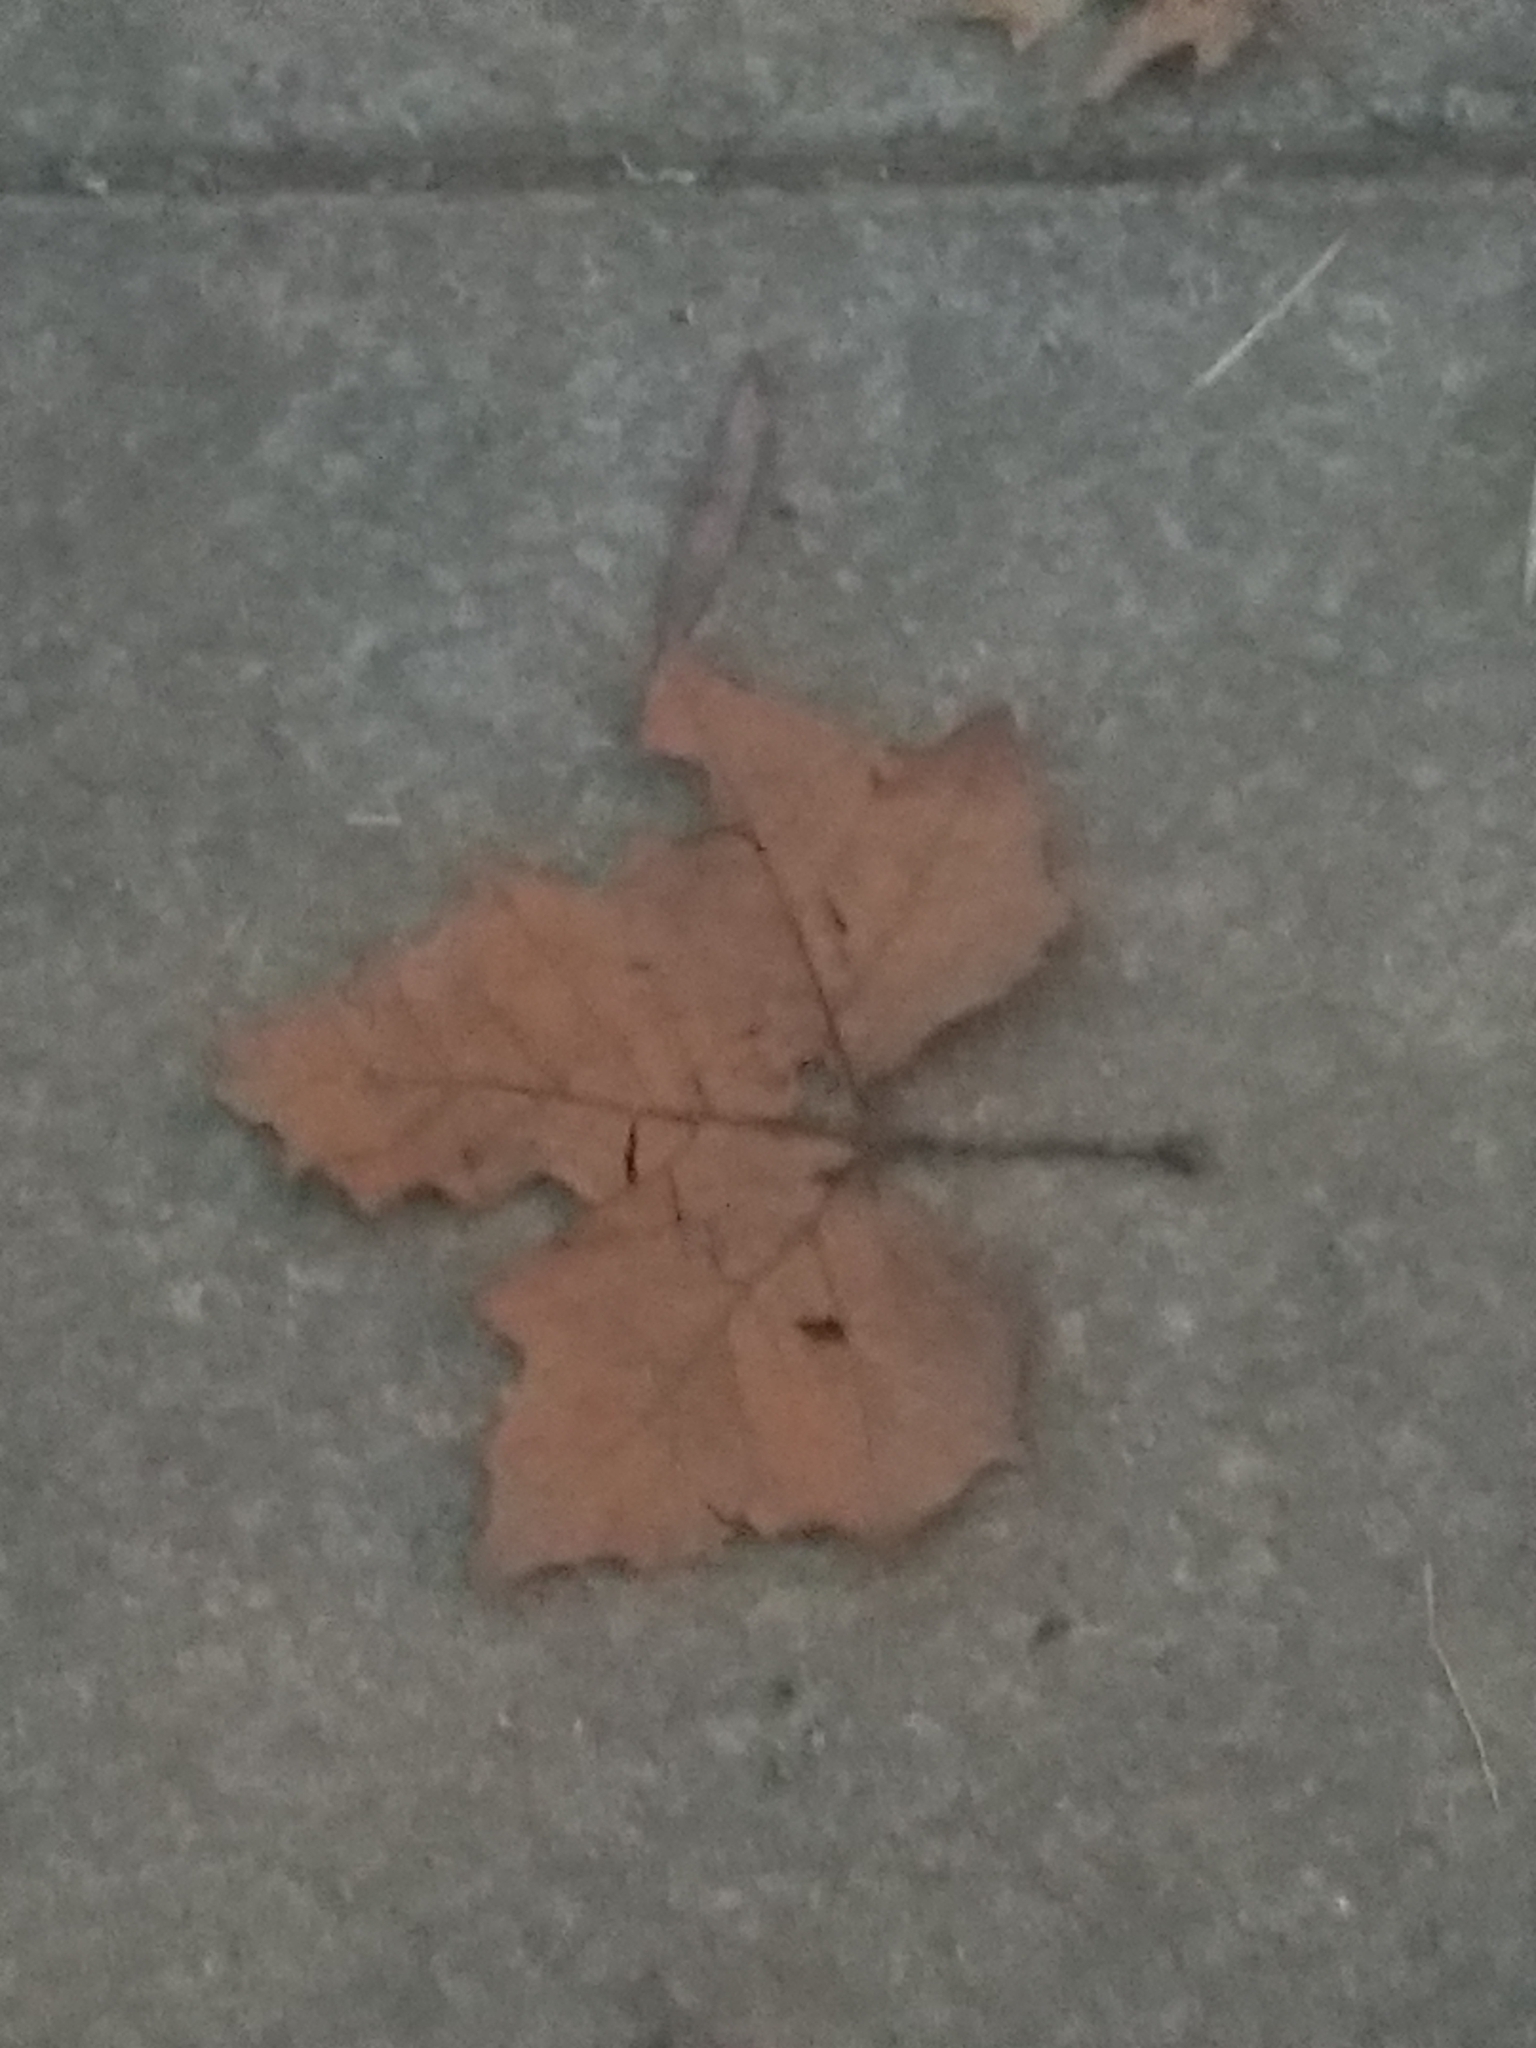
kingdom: Plantae
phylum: Tracheophyta
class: Magnoliopsida
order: Proteales
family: Platanaceae
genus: Platanus
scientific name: Platanus occidentalis
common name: American sycamore
